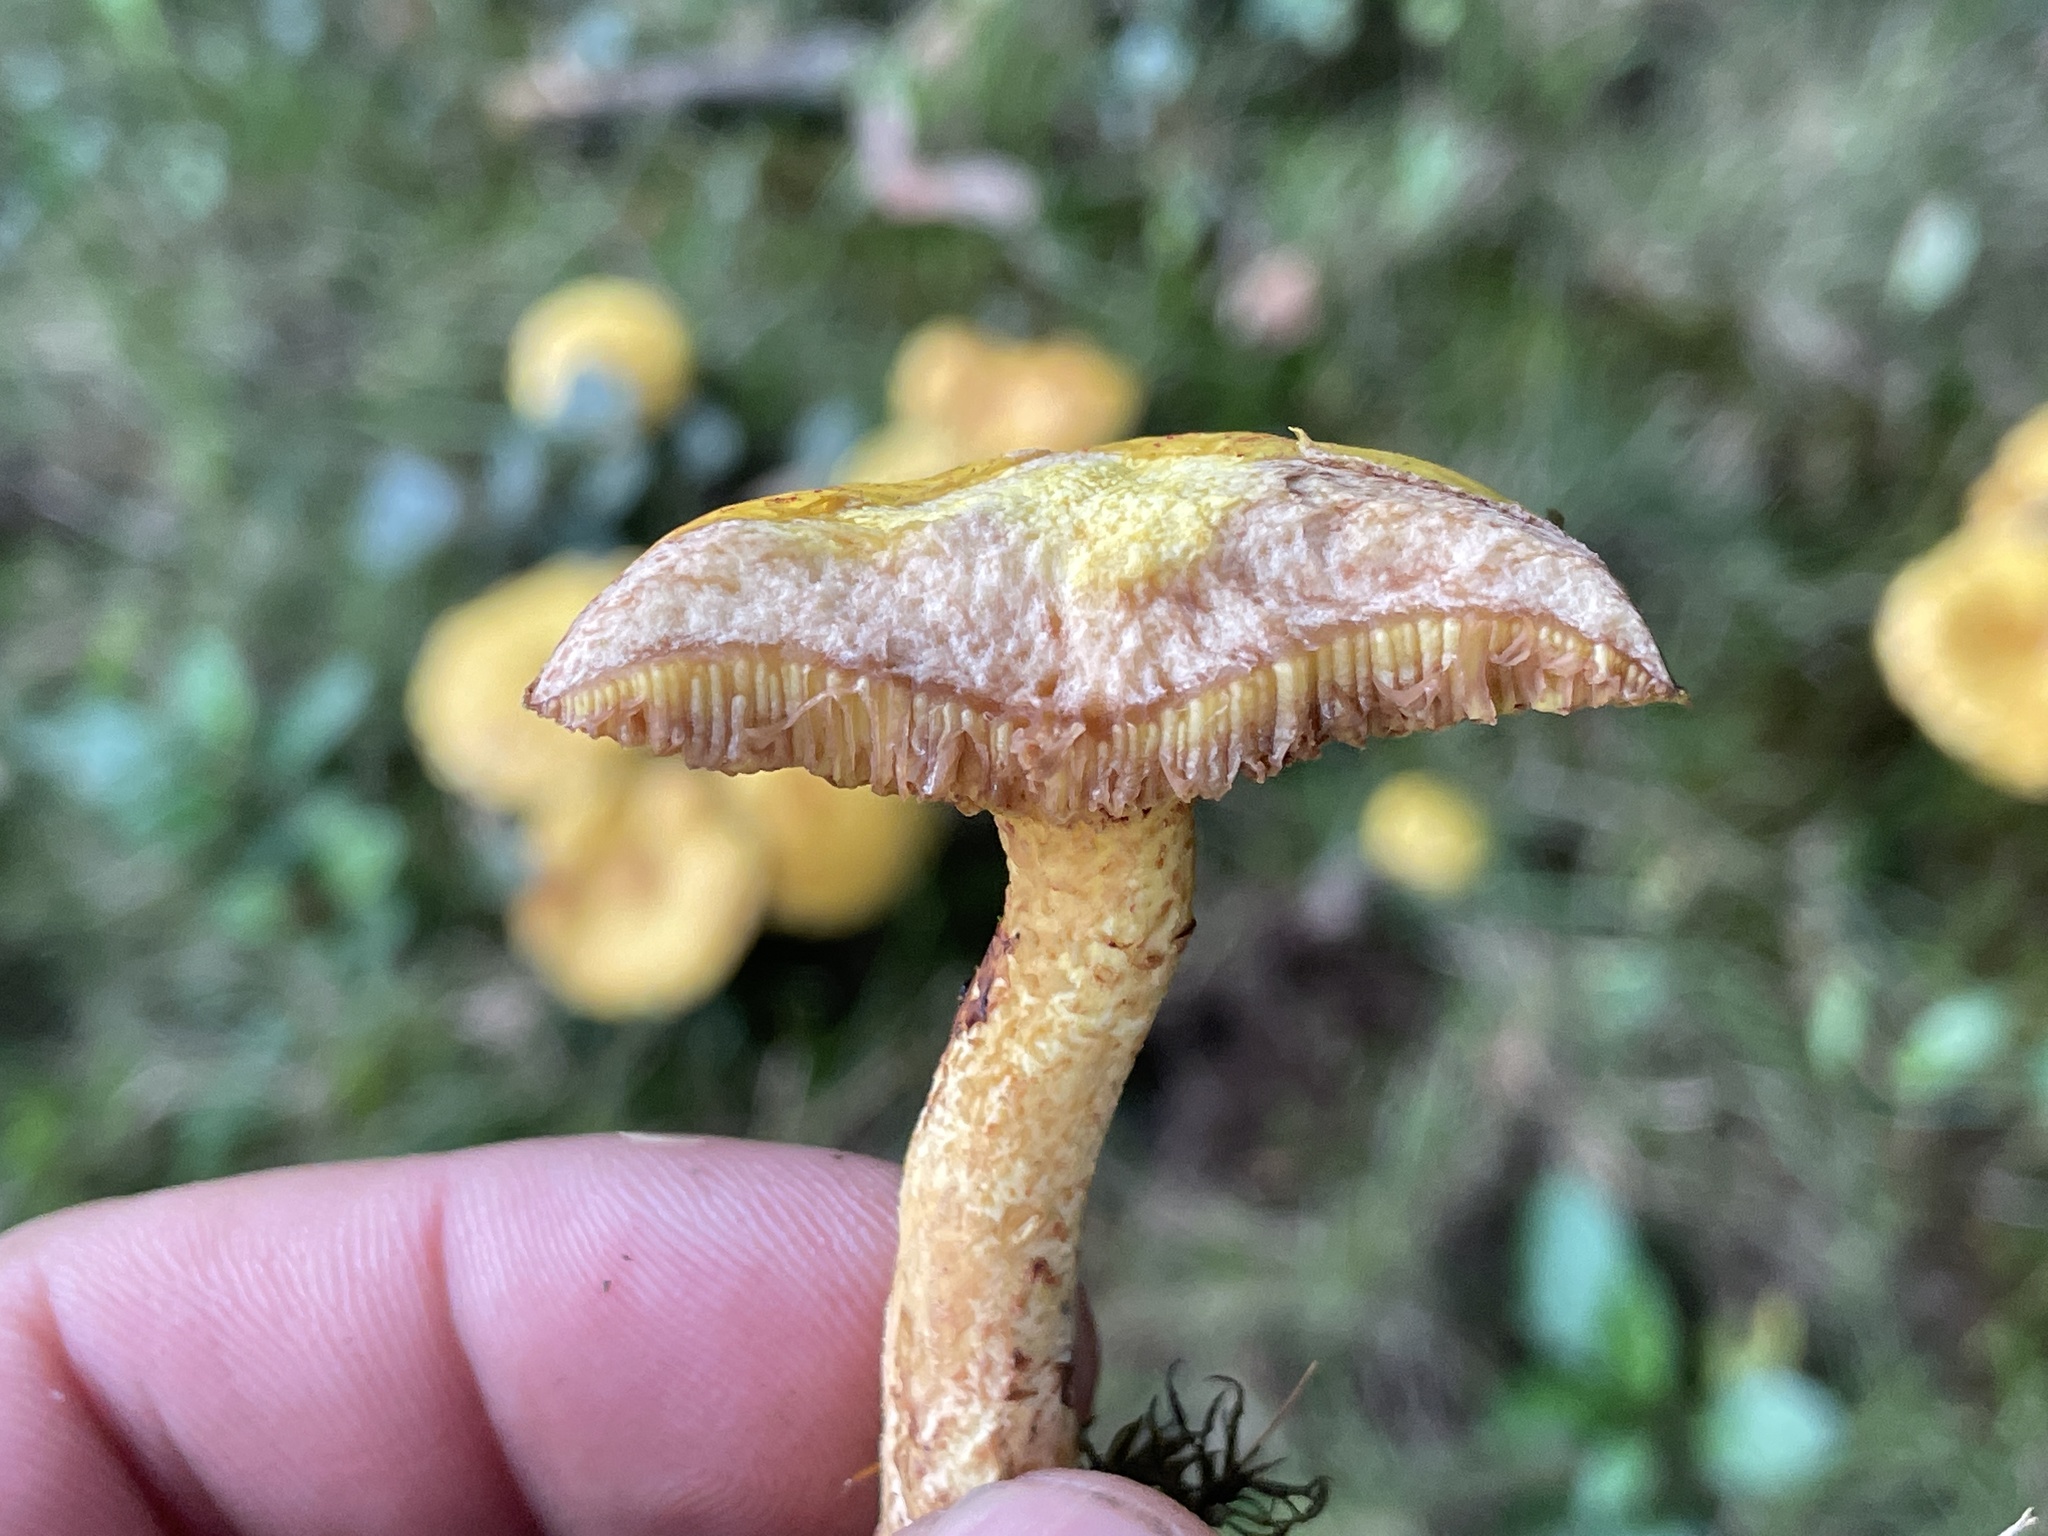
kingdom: Fungi
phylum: Basidiomycota
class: Agaricomycetes
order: Boletales
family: Suillaceae
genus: Suillus
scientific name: Suillus americanus
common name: Chicken fat mushroom
